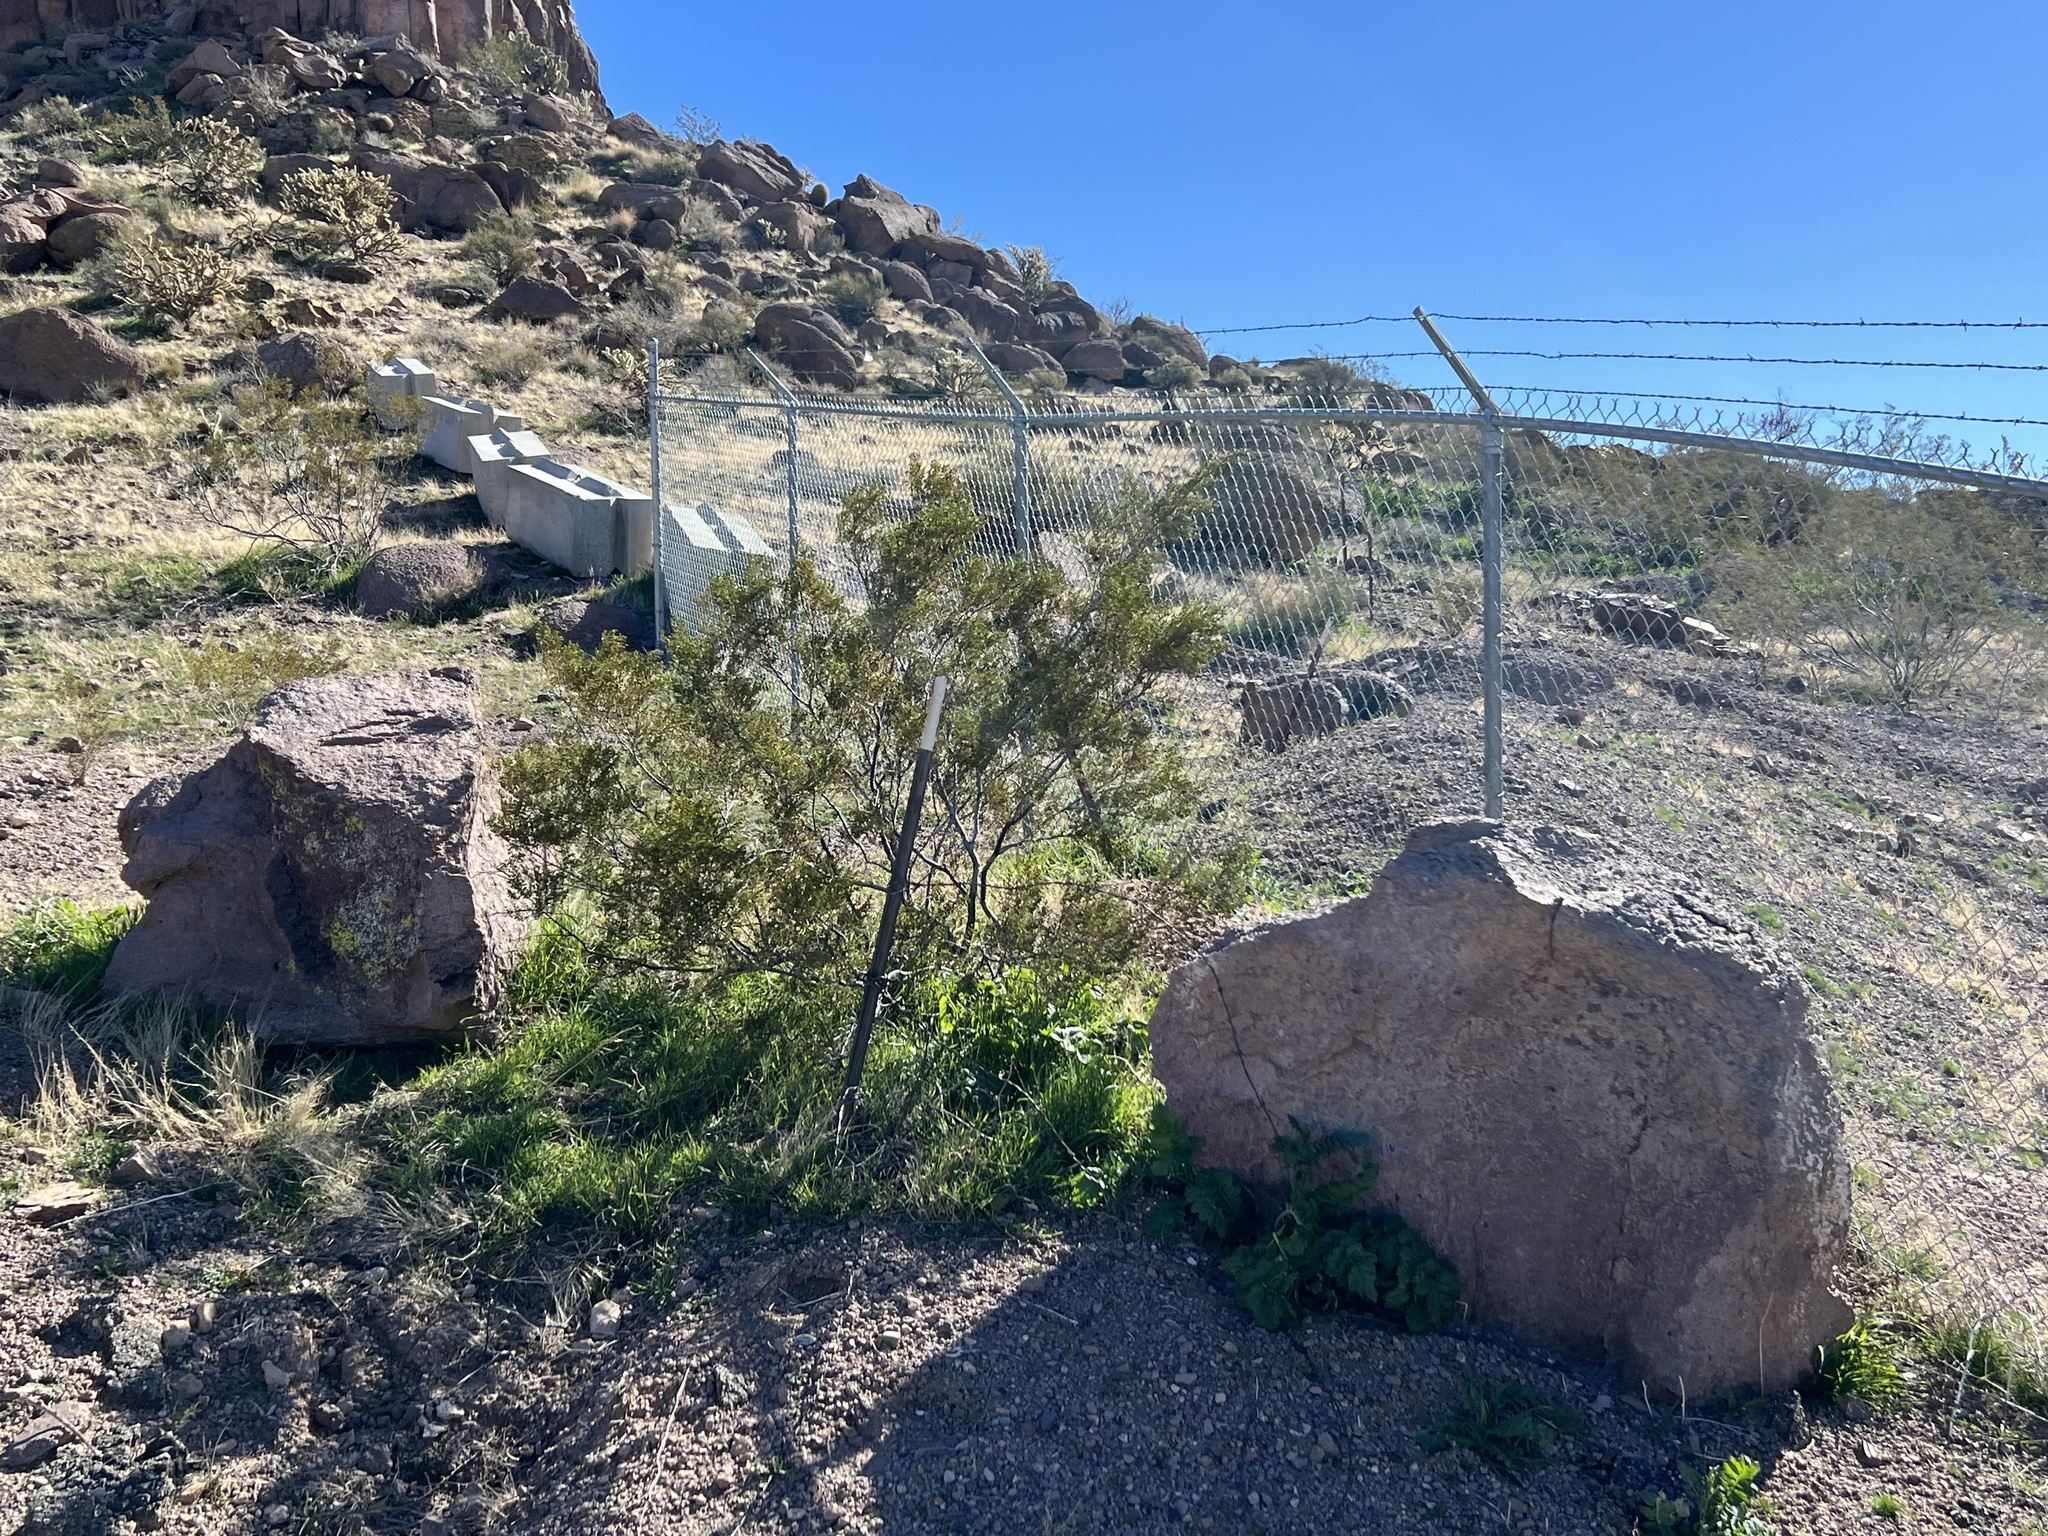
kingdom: Plantae
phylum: Tracheophyta
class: Magnoliopsida
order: Zygophyllales
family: Zygophyllaceae
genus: Larrea
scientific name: Larrea tridentata
